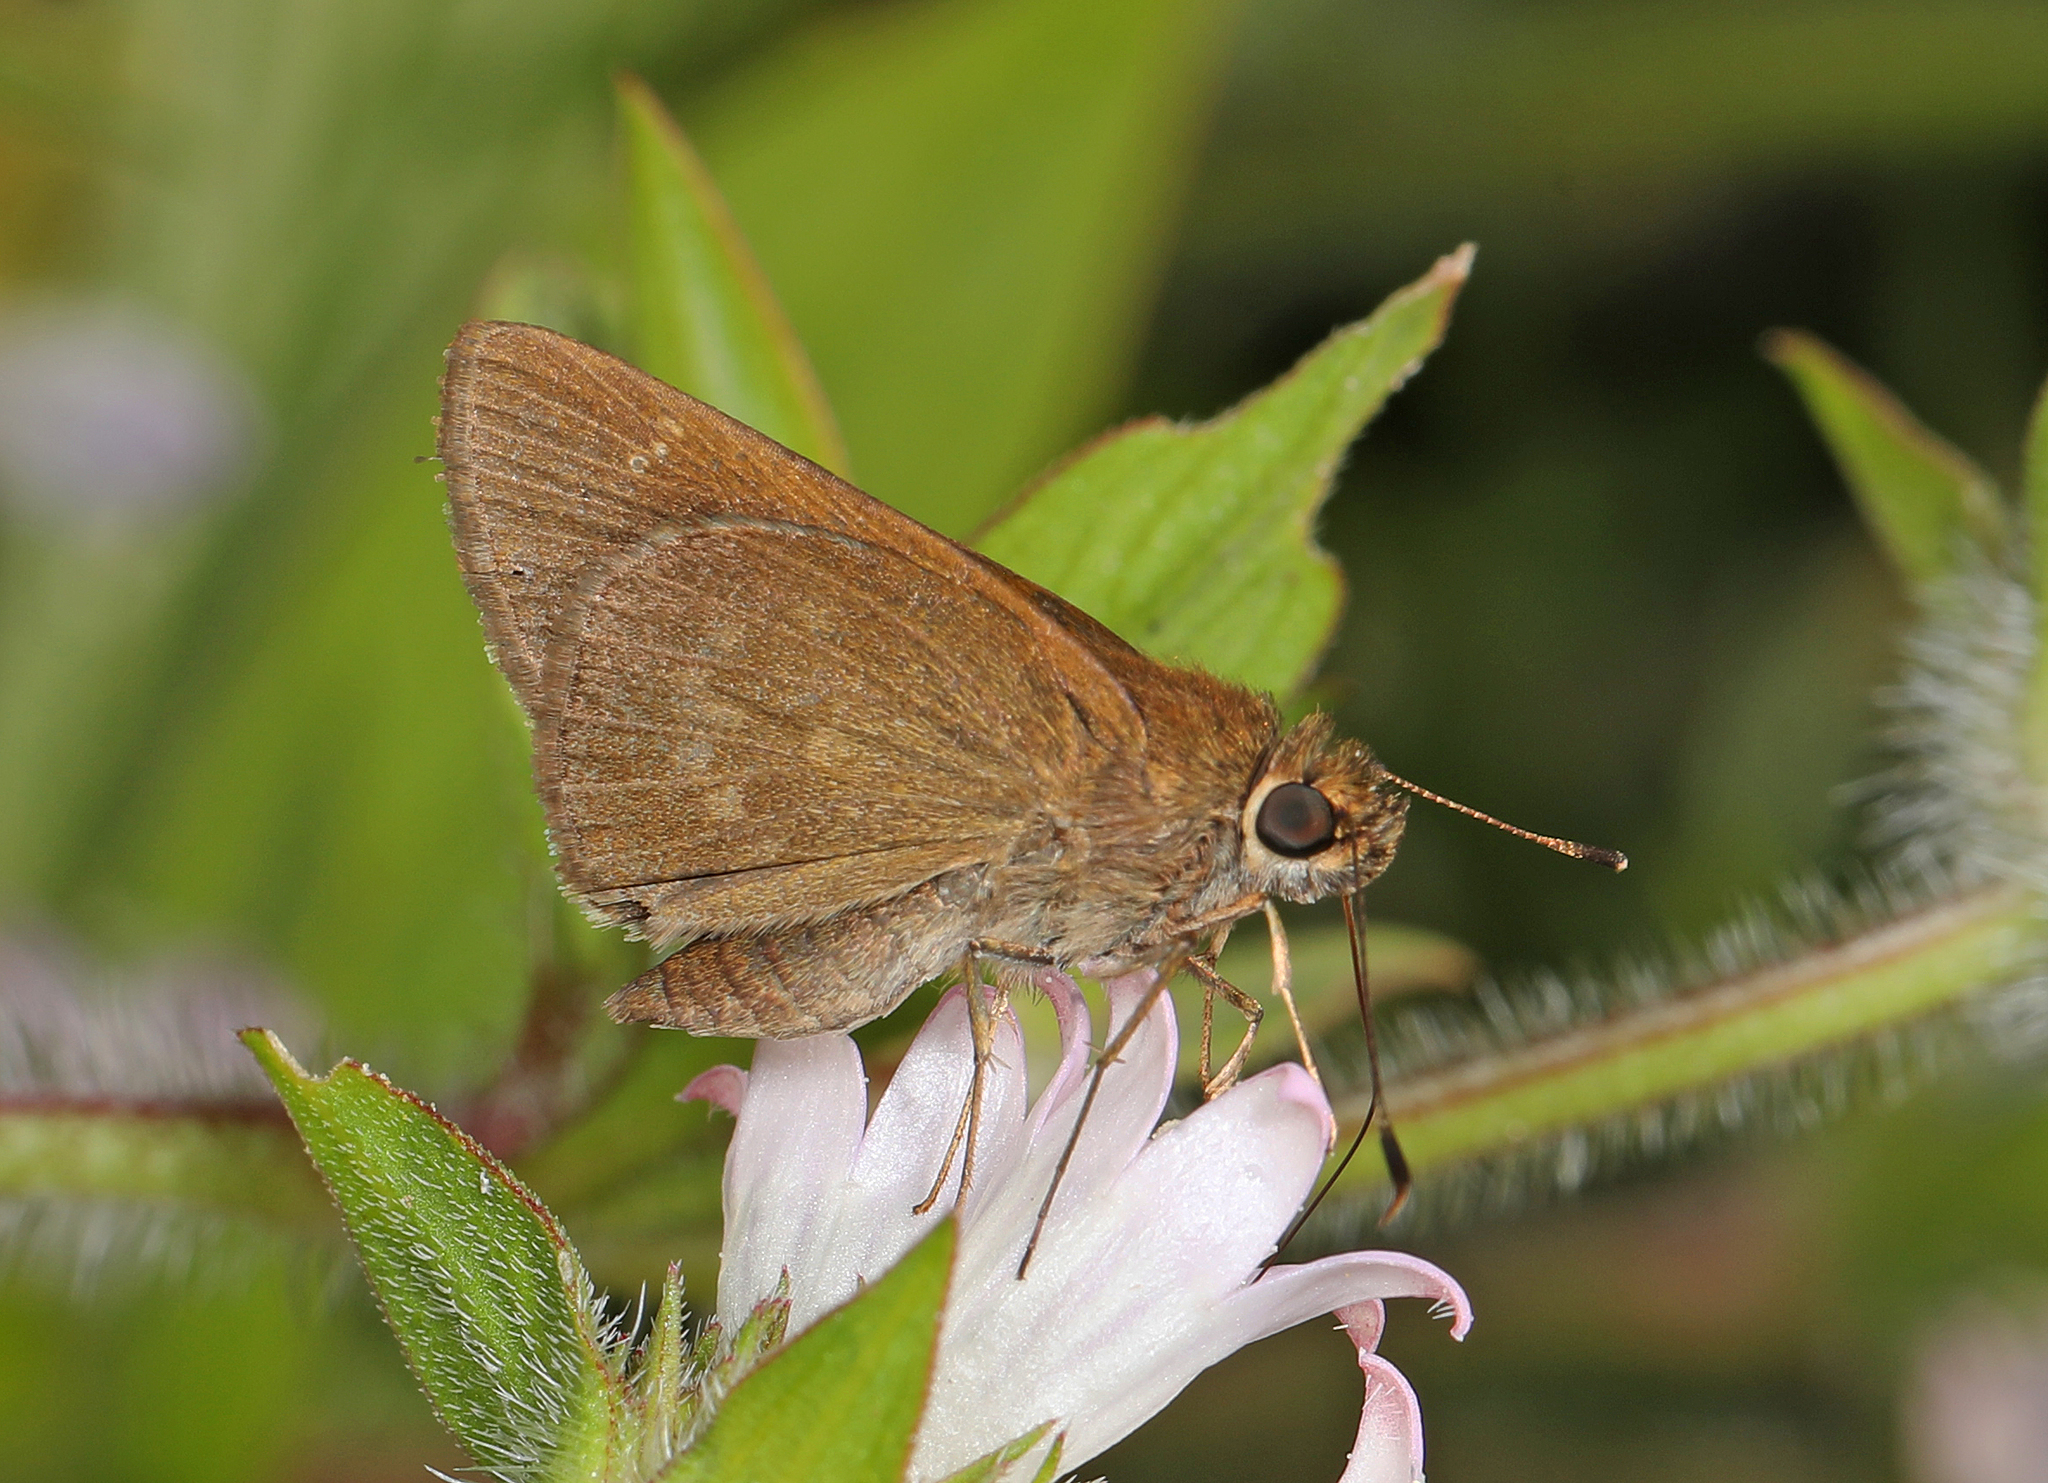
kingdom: Animalia
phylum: Arthropoda
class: Insecta
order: Lepidoptera
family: Hesperiidae
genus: Cymaenes
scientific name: Cymaenes tripunctus
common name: Dingy dotted skipper
